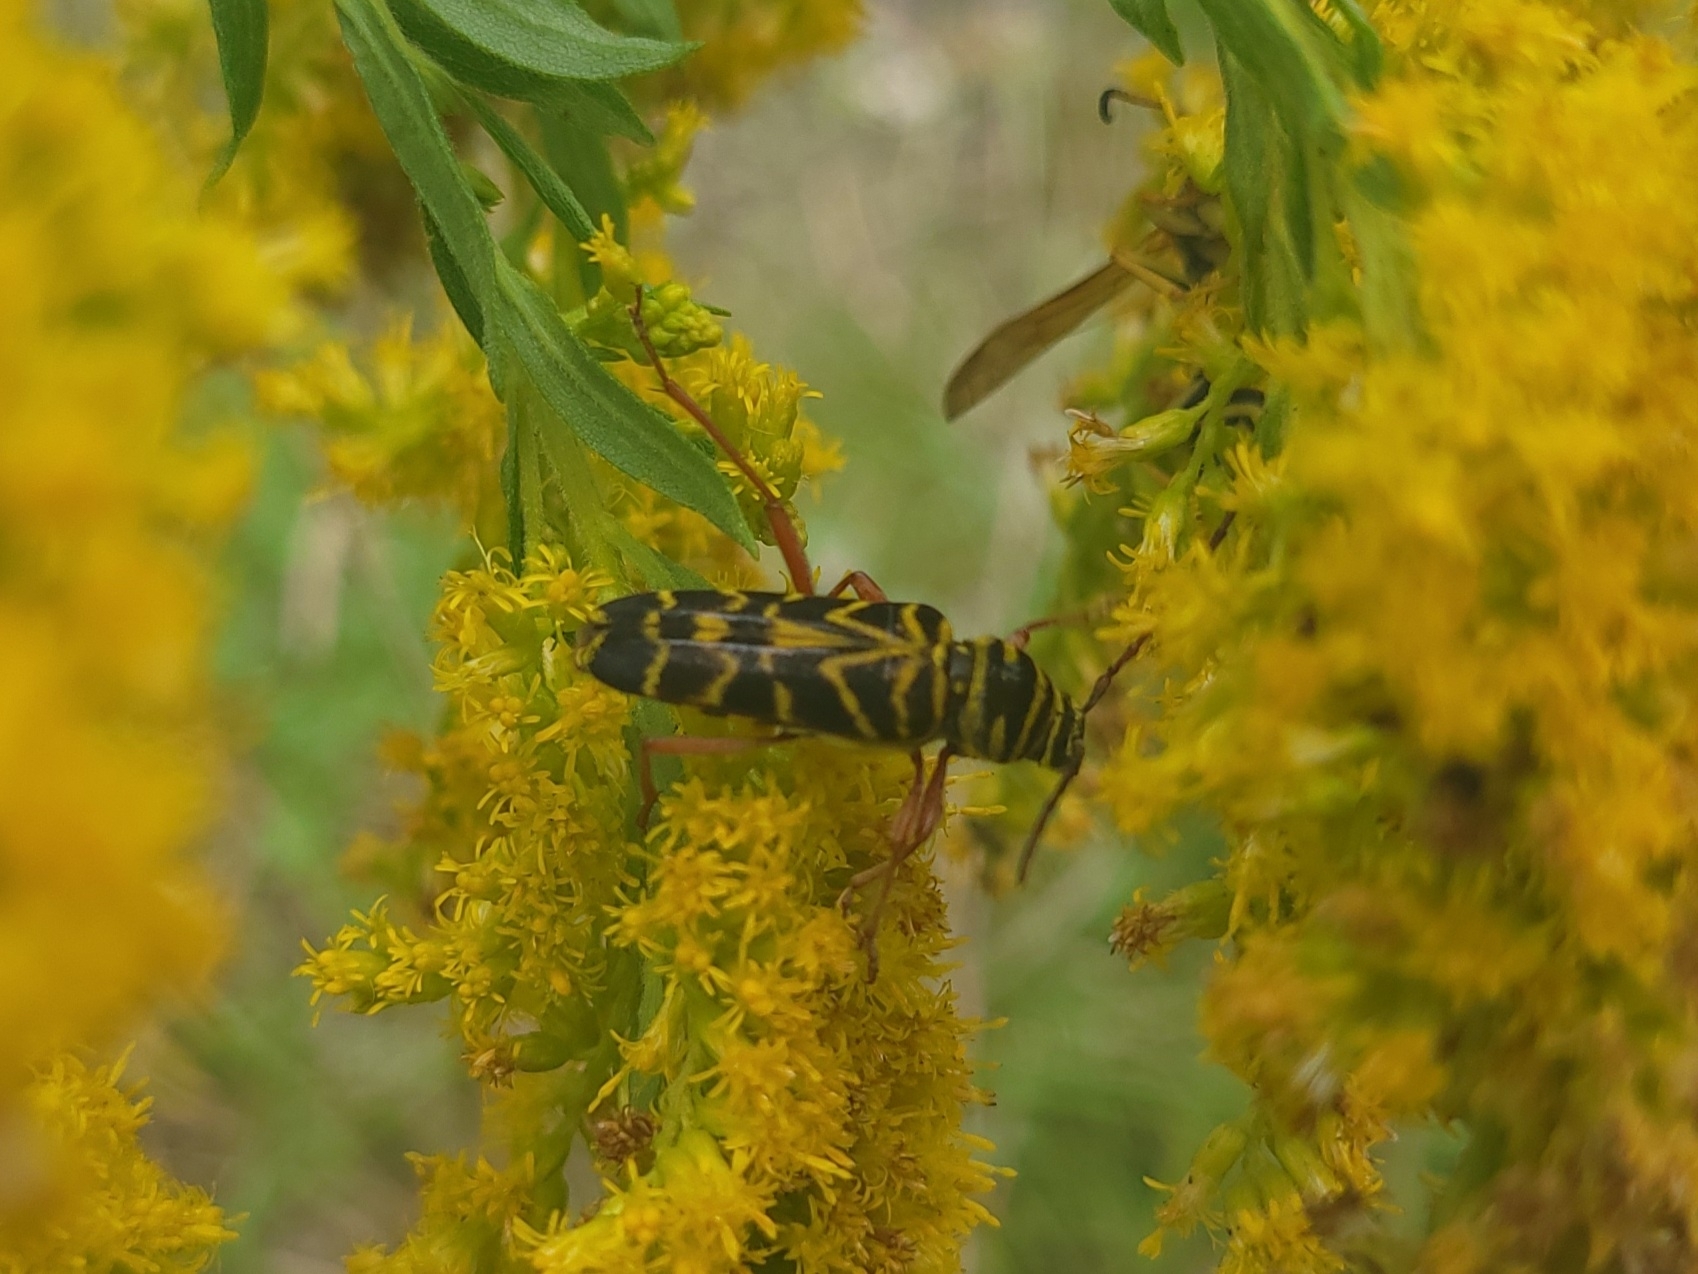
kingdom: Animalia
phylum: Arthropoda
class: Insecta
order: Coleoptera
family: Cerambycidae
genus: Megacyllene
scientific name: Megacyllene robiniae
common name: Locust borer
